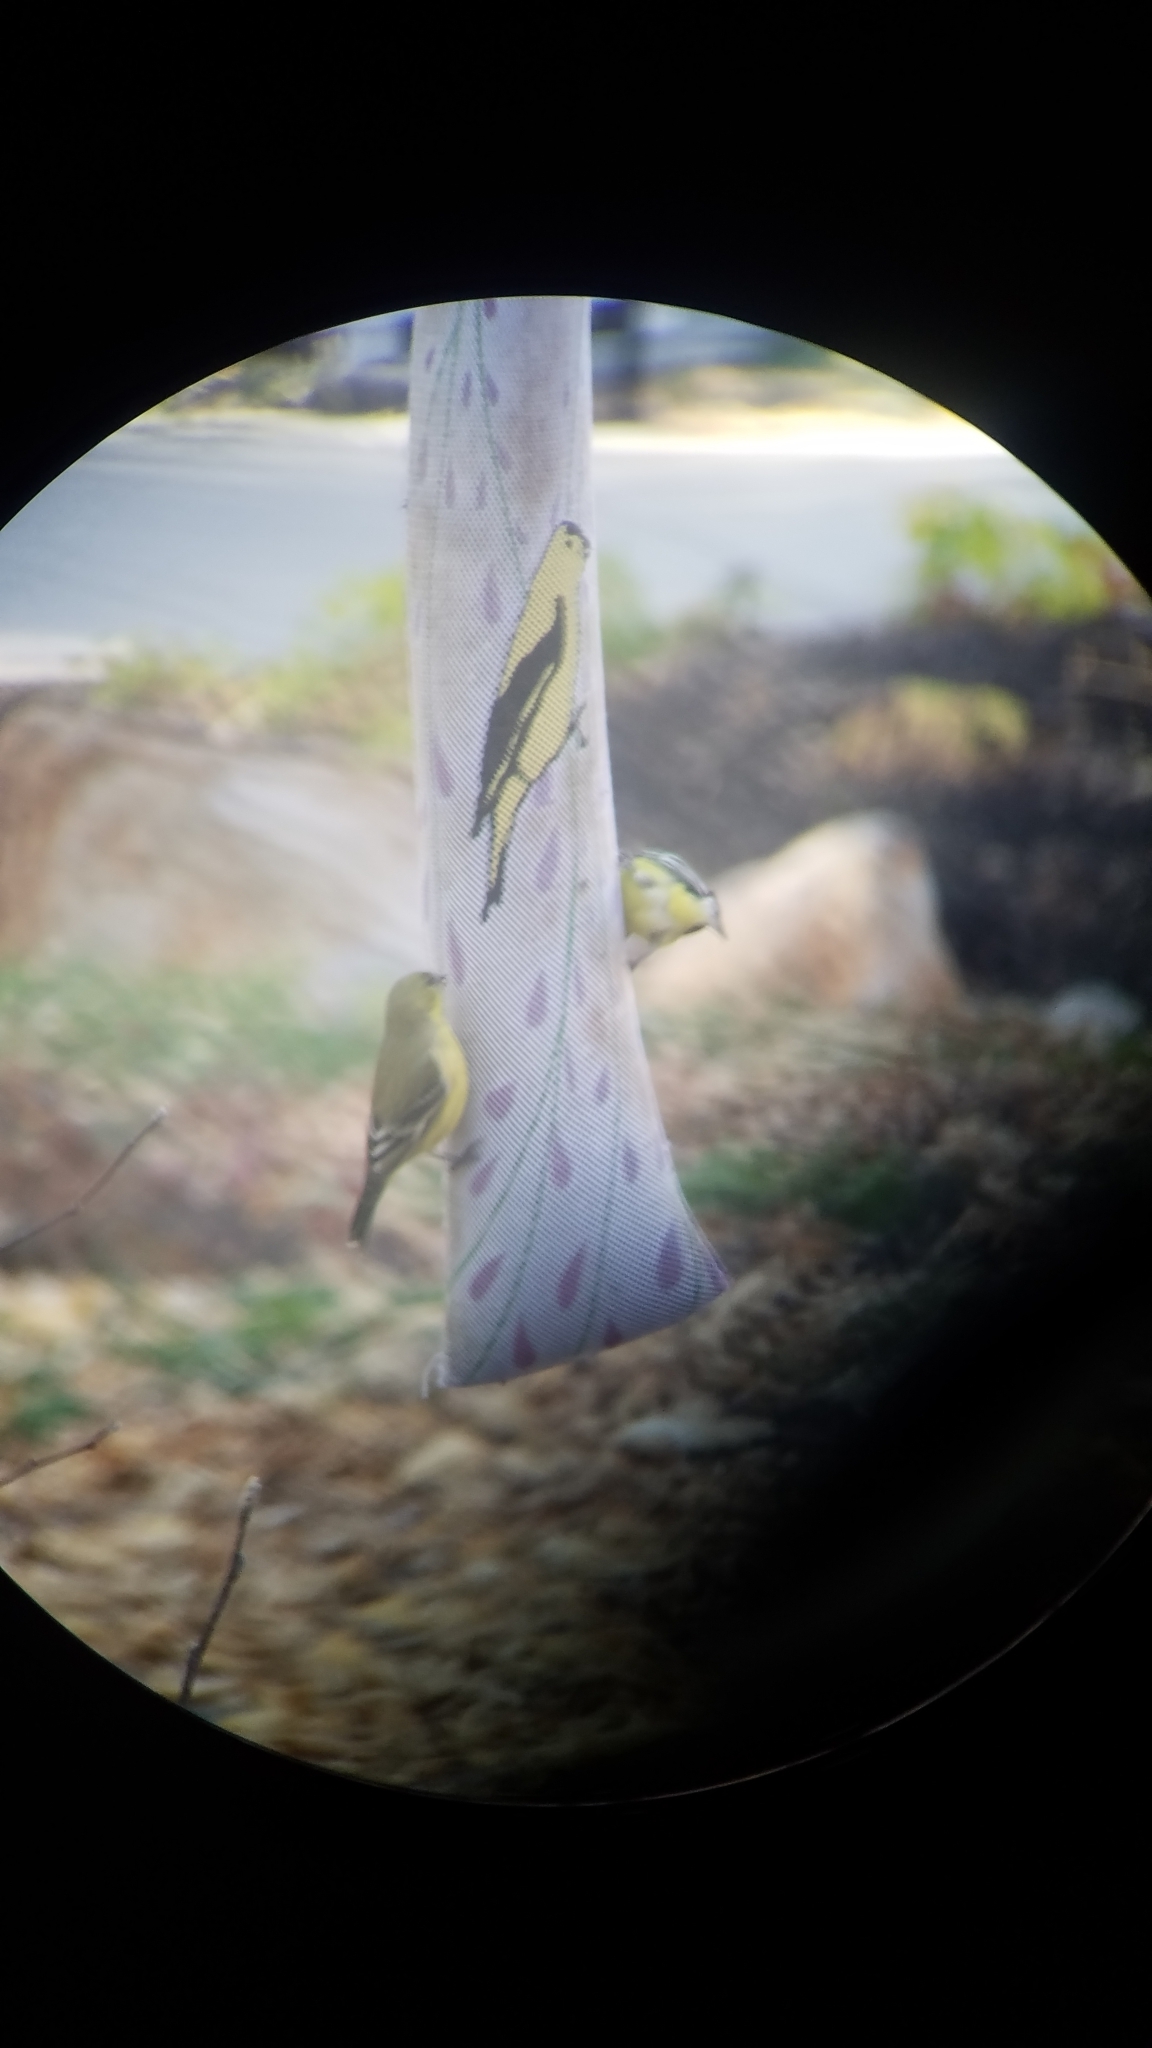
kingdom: Animalia
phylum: Chordata
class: Aves
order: Passeriformes
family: Fringillidae
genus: Spinus
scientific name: Spinus psaltria
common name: Lesser goldfinch
